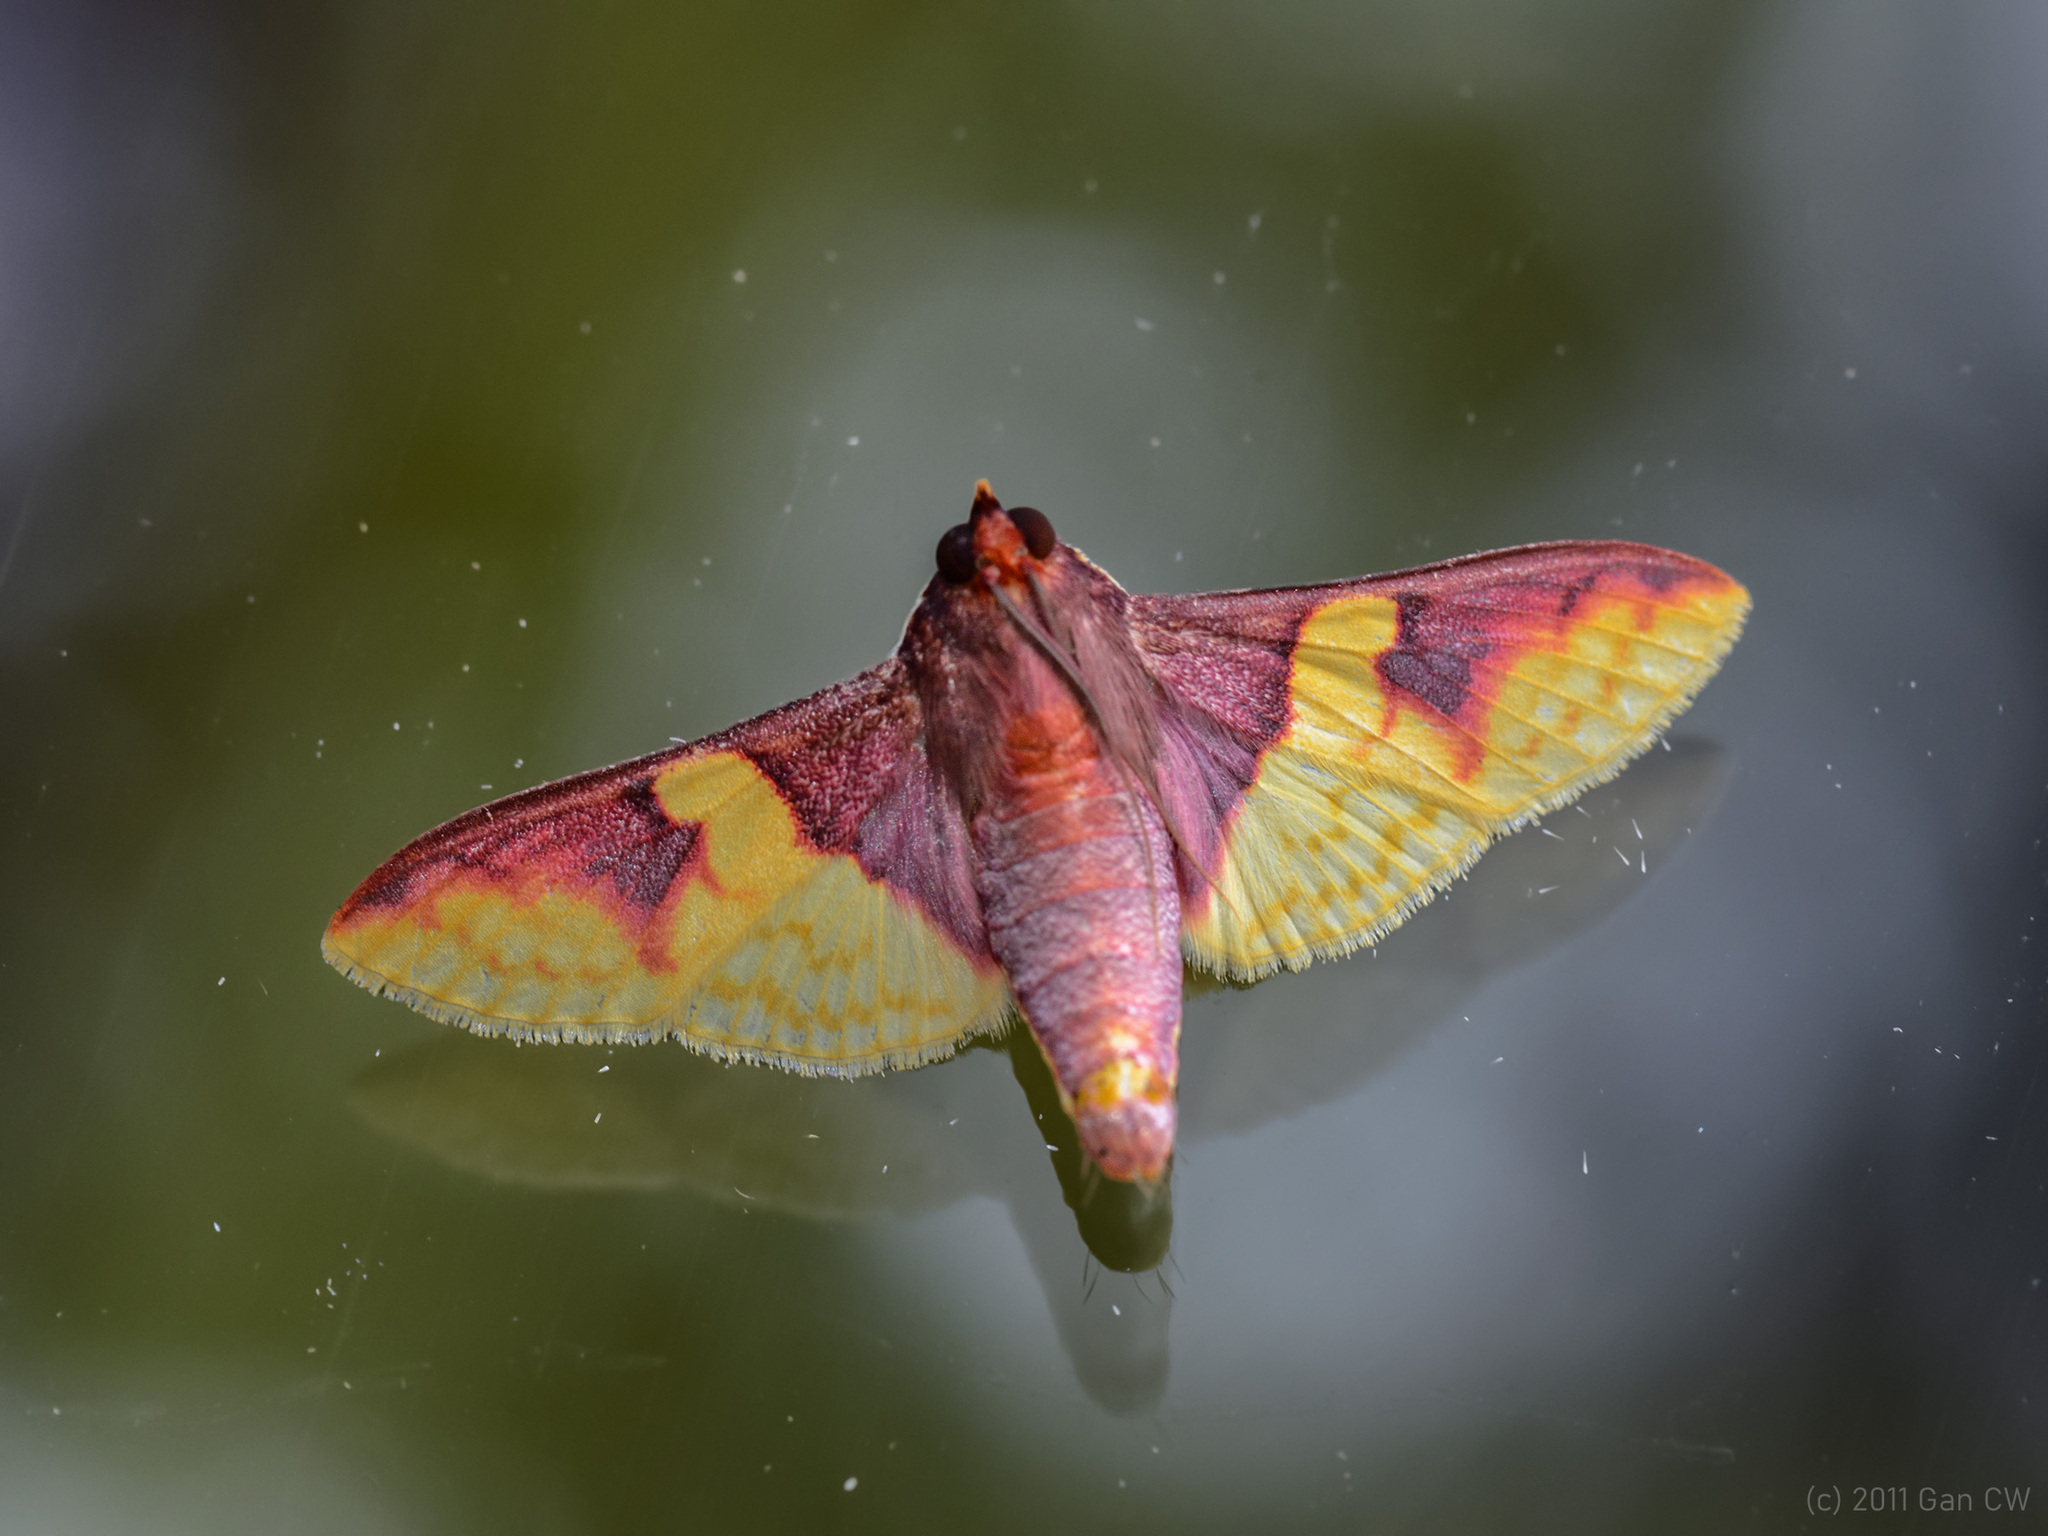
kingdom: Animalia
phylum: Arthropoda
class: Insecta
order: Lepidoptera
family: Crambidae
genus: Pachynoa
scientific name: Pachynoa purpuralis
